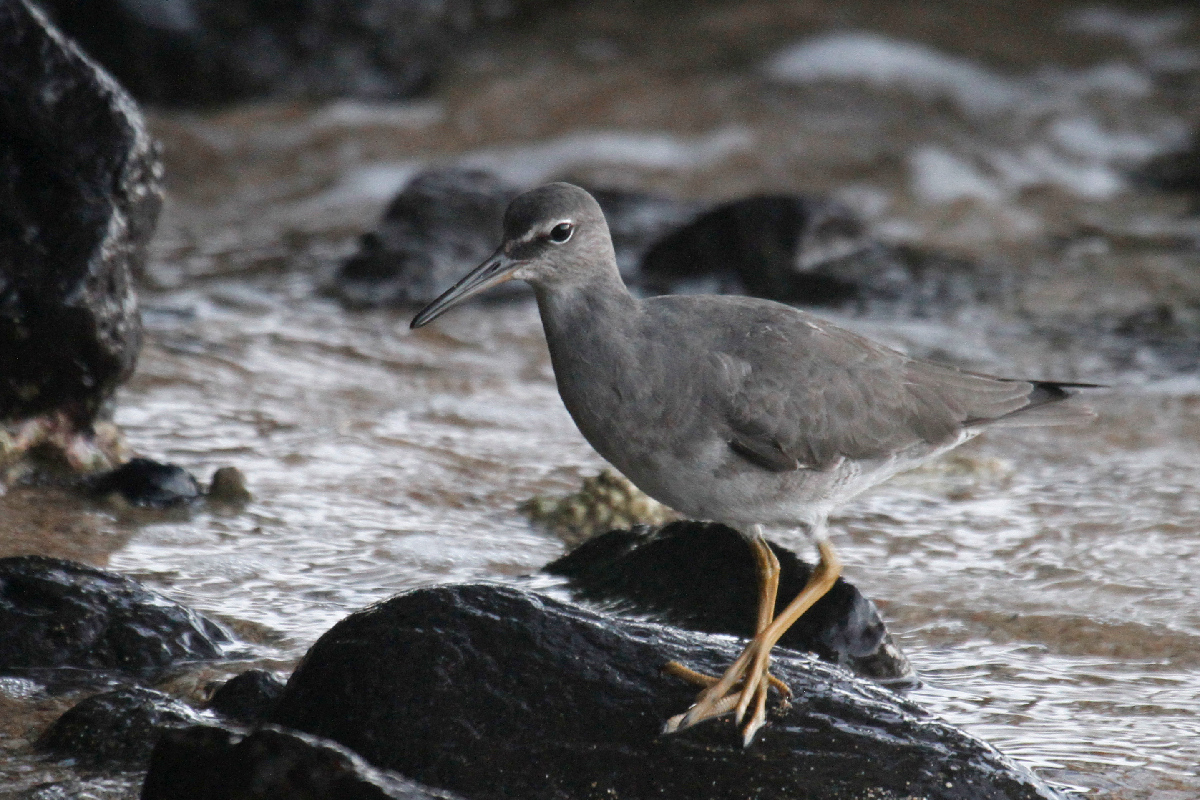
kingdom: Animalia
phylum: Chordata
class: Aves
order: Charadriiformes
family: Scolopacidae
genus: Tringa
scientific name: Tringa incana
